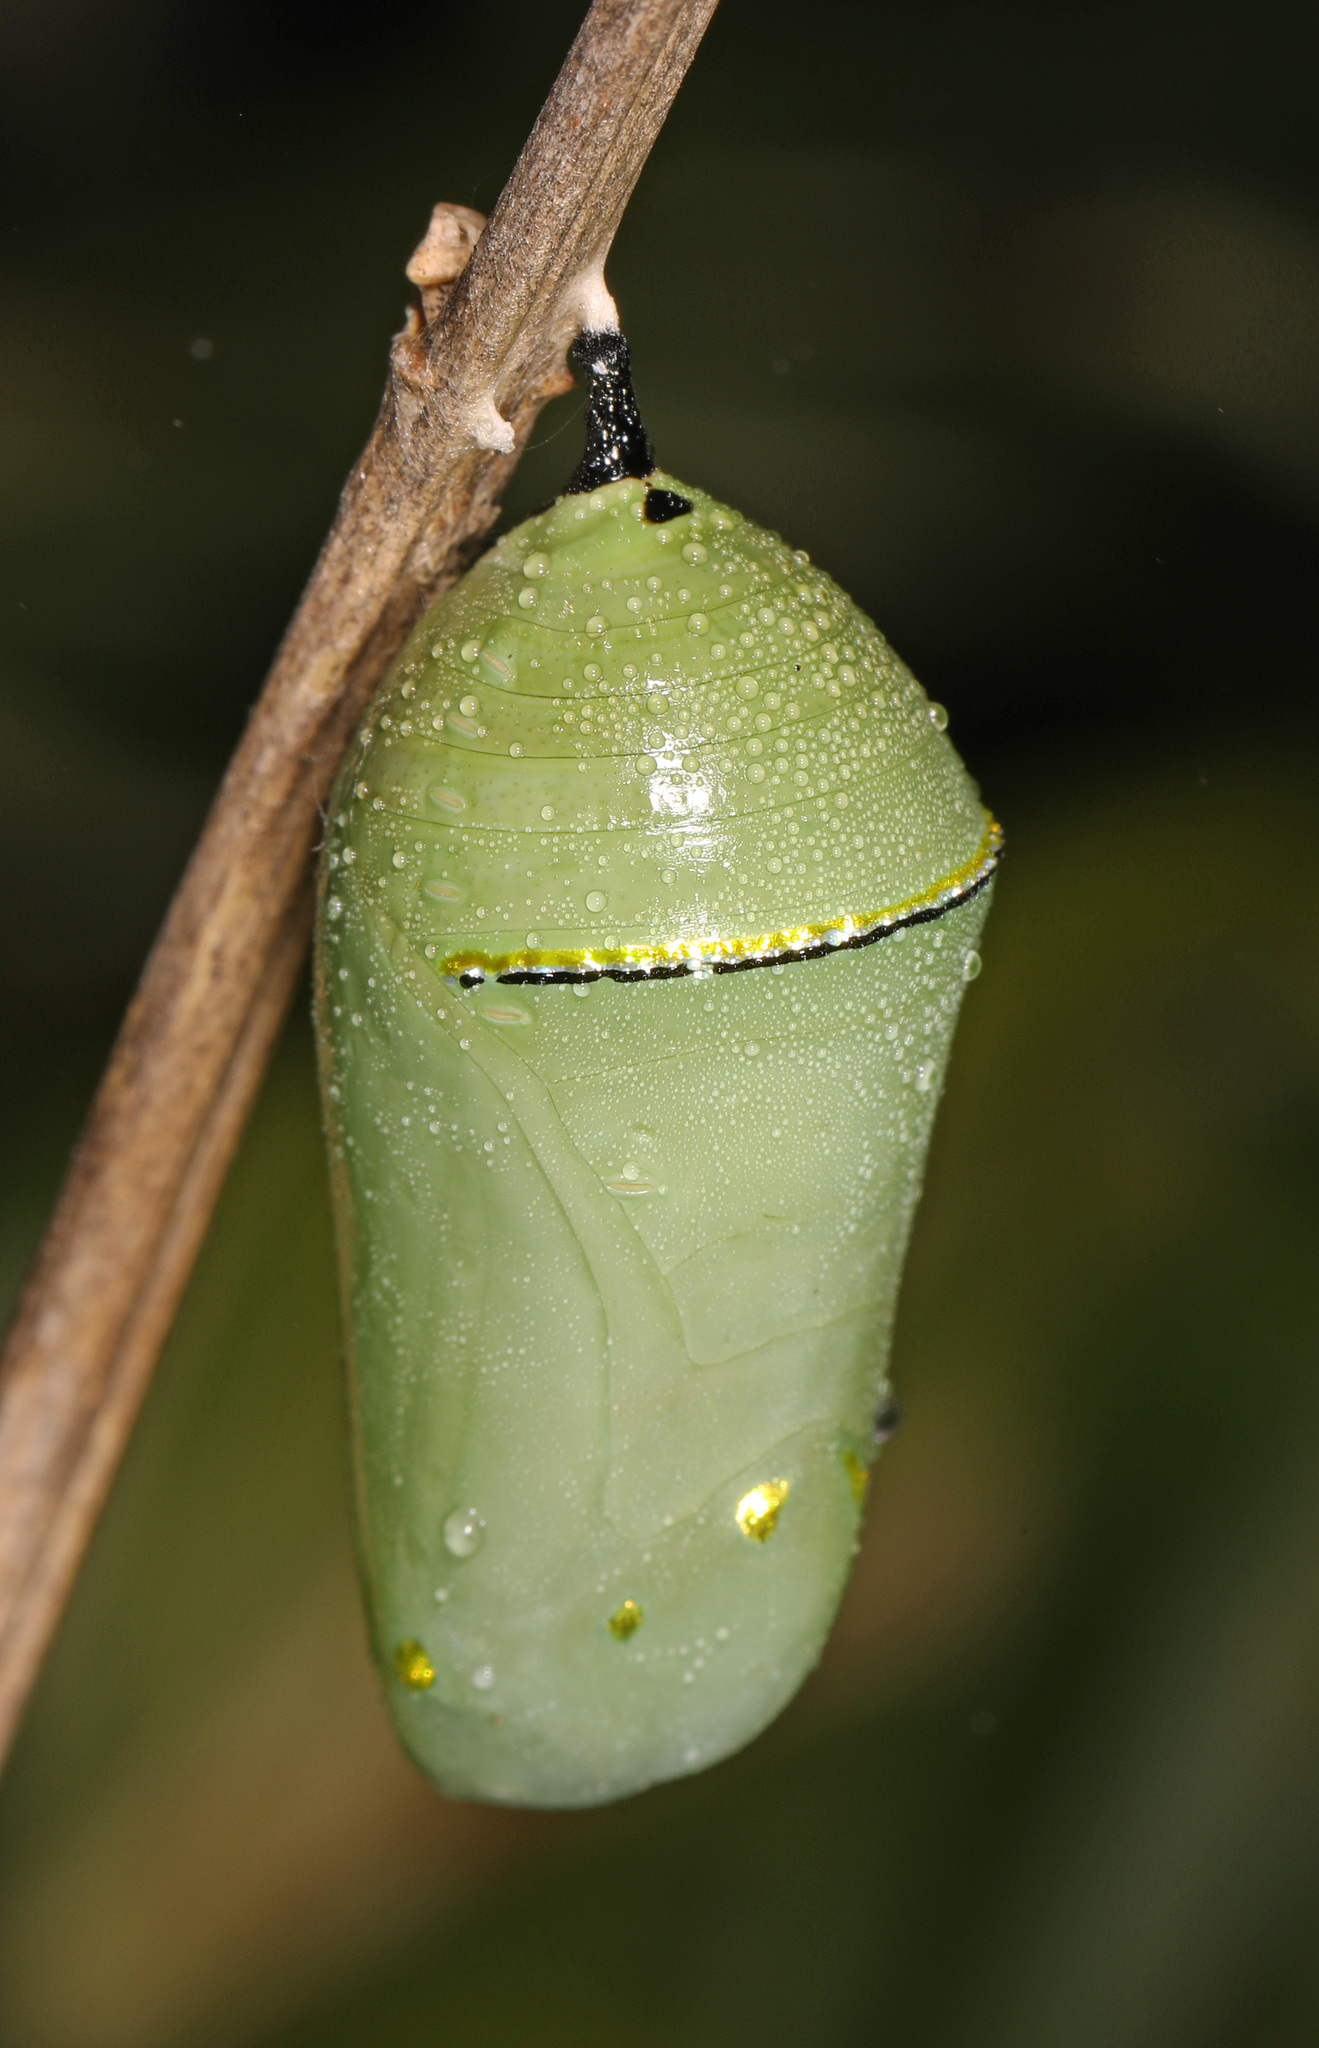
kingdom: Animalia
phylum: Arthropoda
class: Insecta
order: Lepidoptera
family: Nymphalidae
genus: Danaus
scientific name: Danaus plexippus
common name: Monarch
